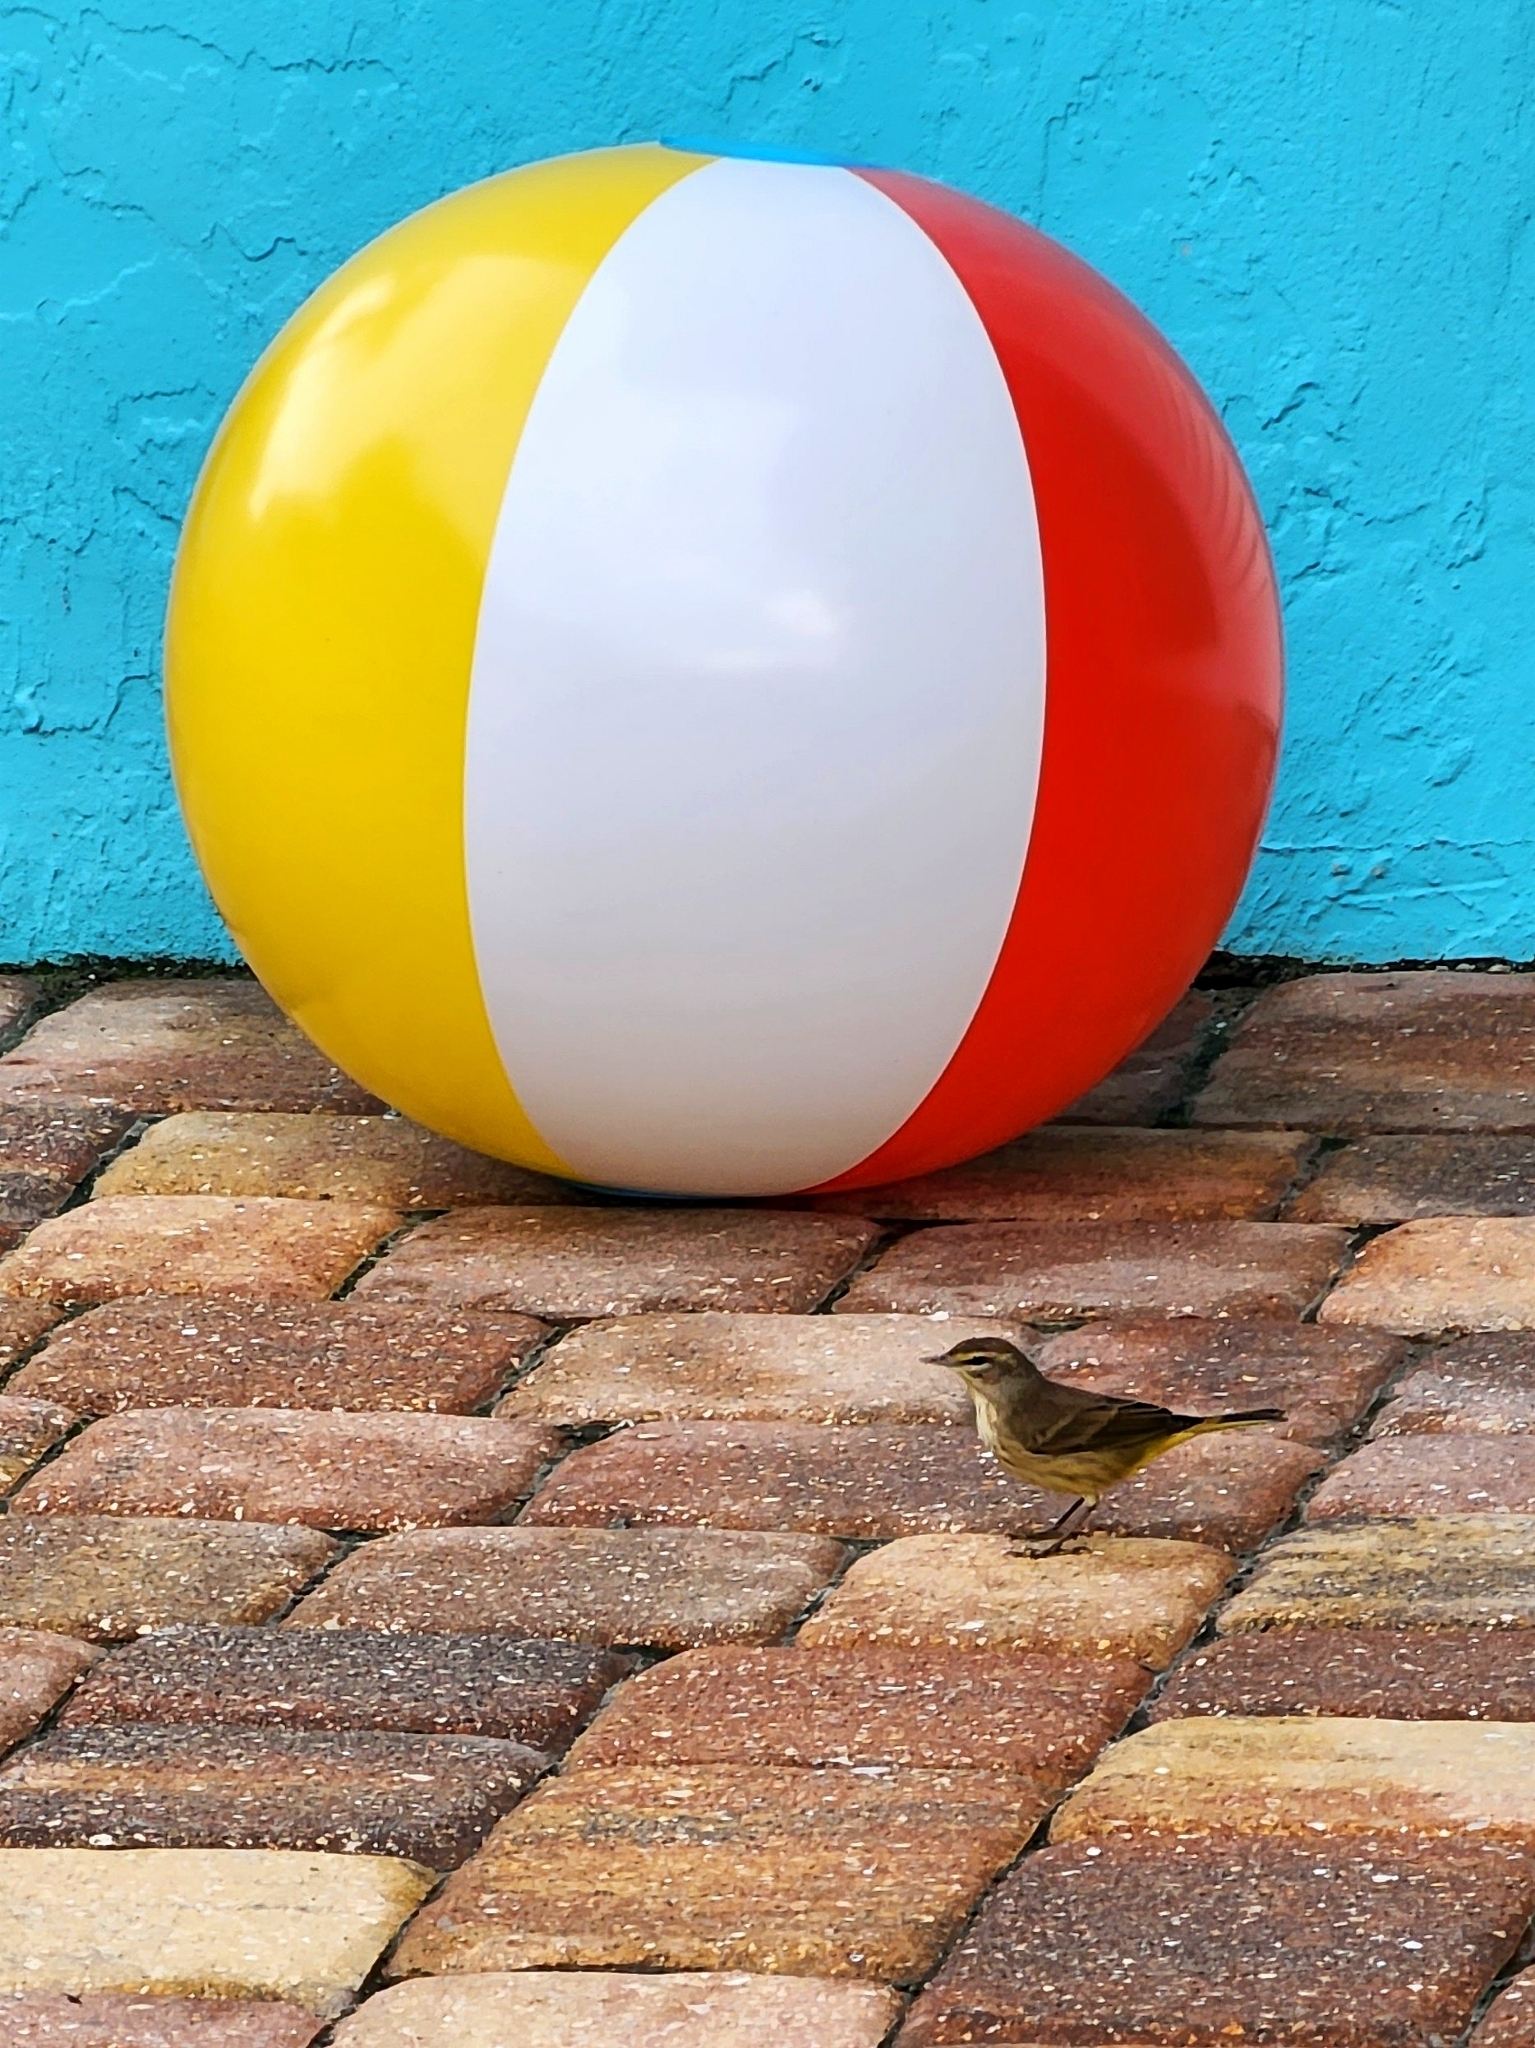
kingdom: Animalia
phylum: Chordata
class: Aves
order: Passeriformes
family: Parulidae
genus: Setophaga
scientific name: Setophaga palmarum
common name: Palm warbler
